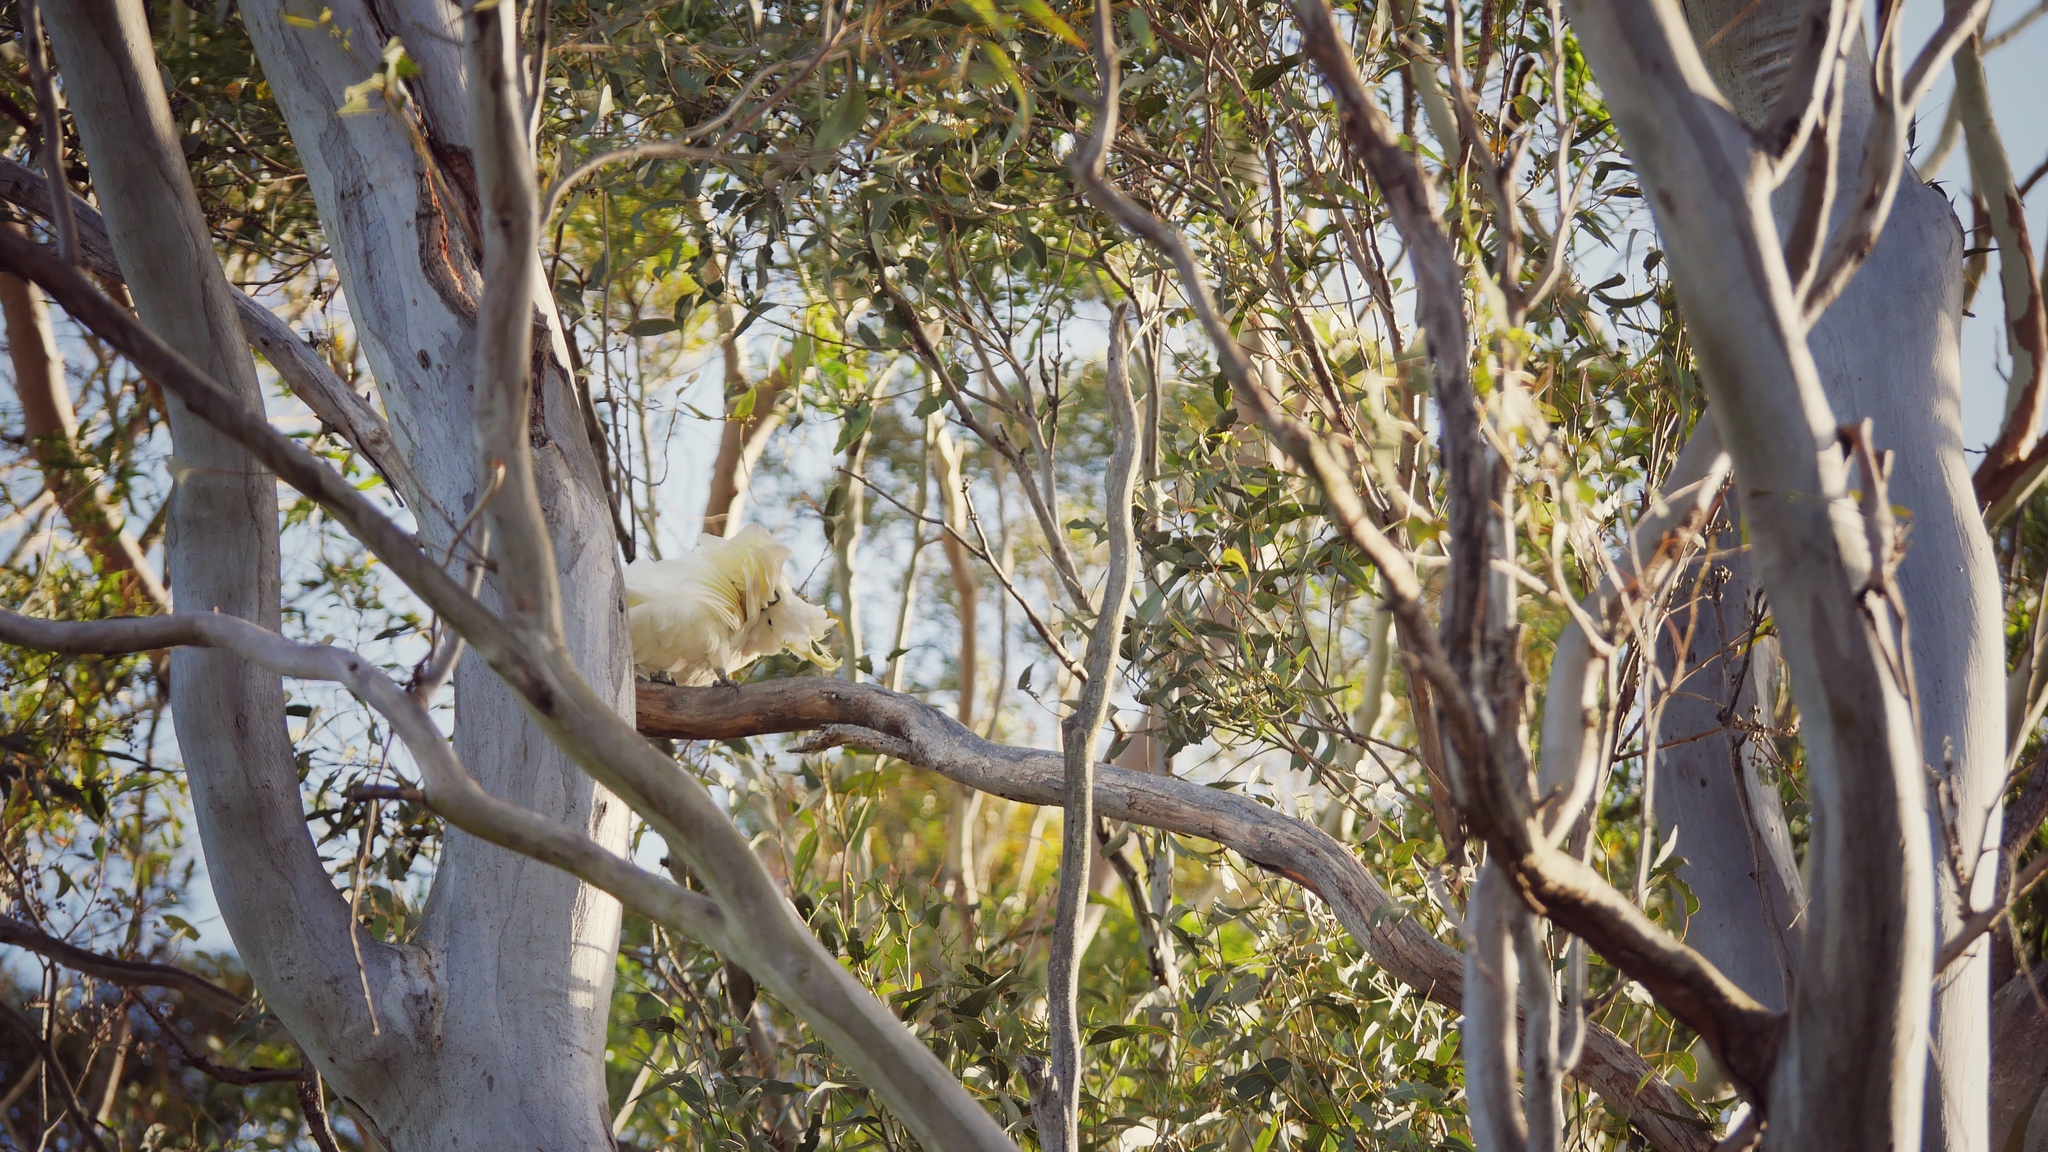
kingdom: Animalia
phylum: Chordata
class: Aves
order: Psittaciformes
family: Psittacidae
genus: Cacatua
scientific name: Cacatua galerita
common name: Sulphur-crested cockatoo
